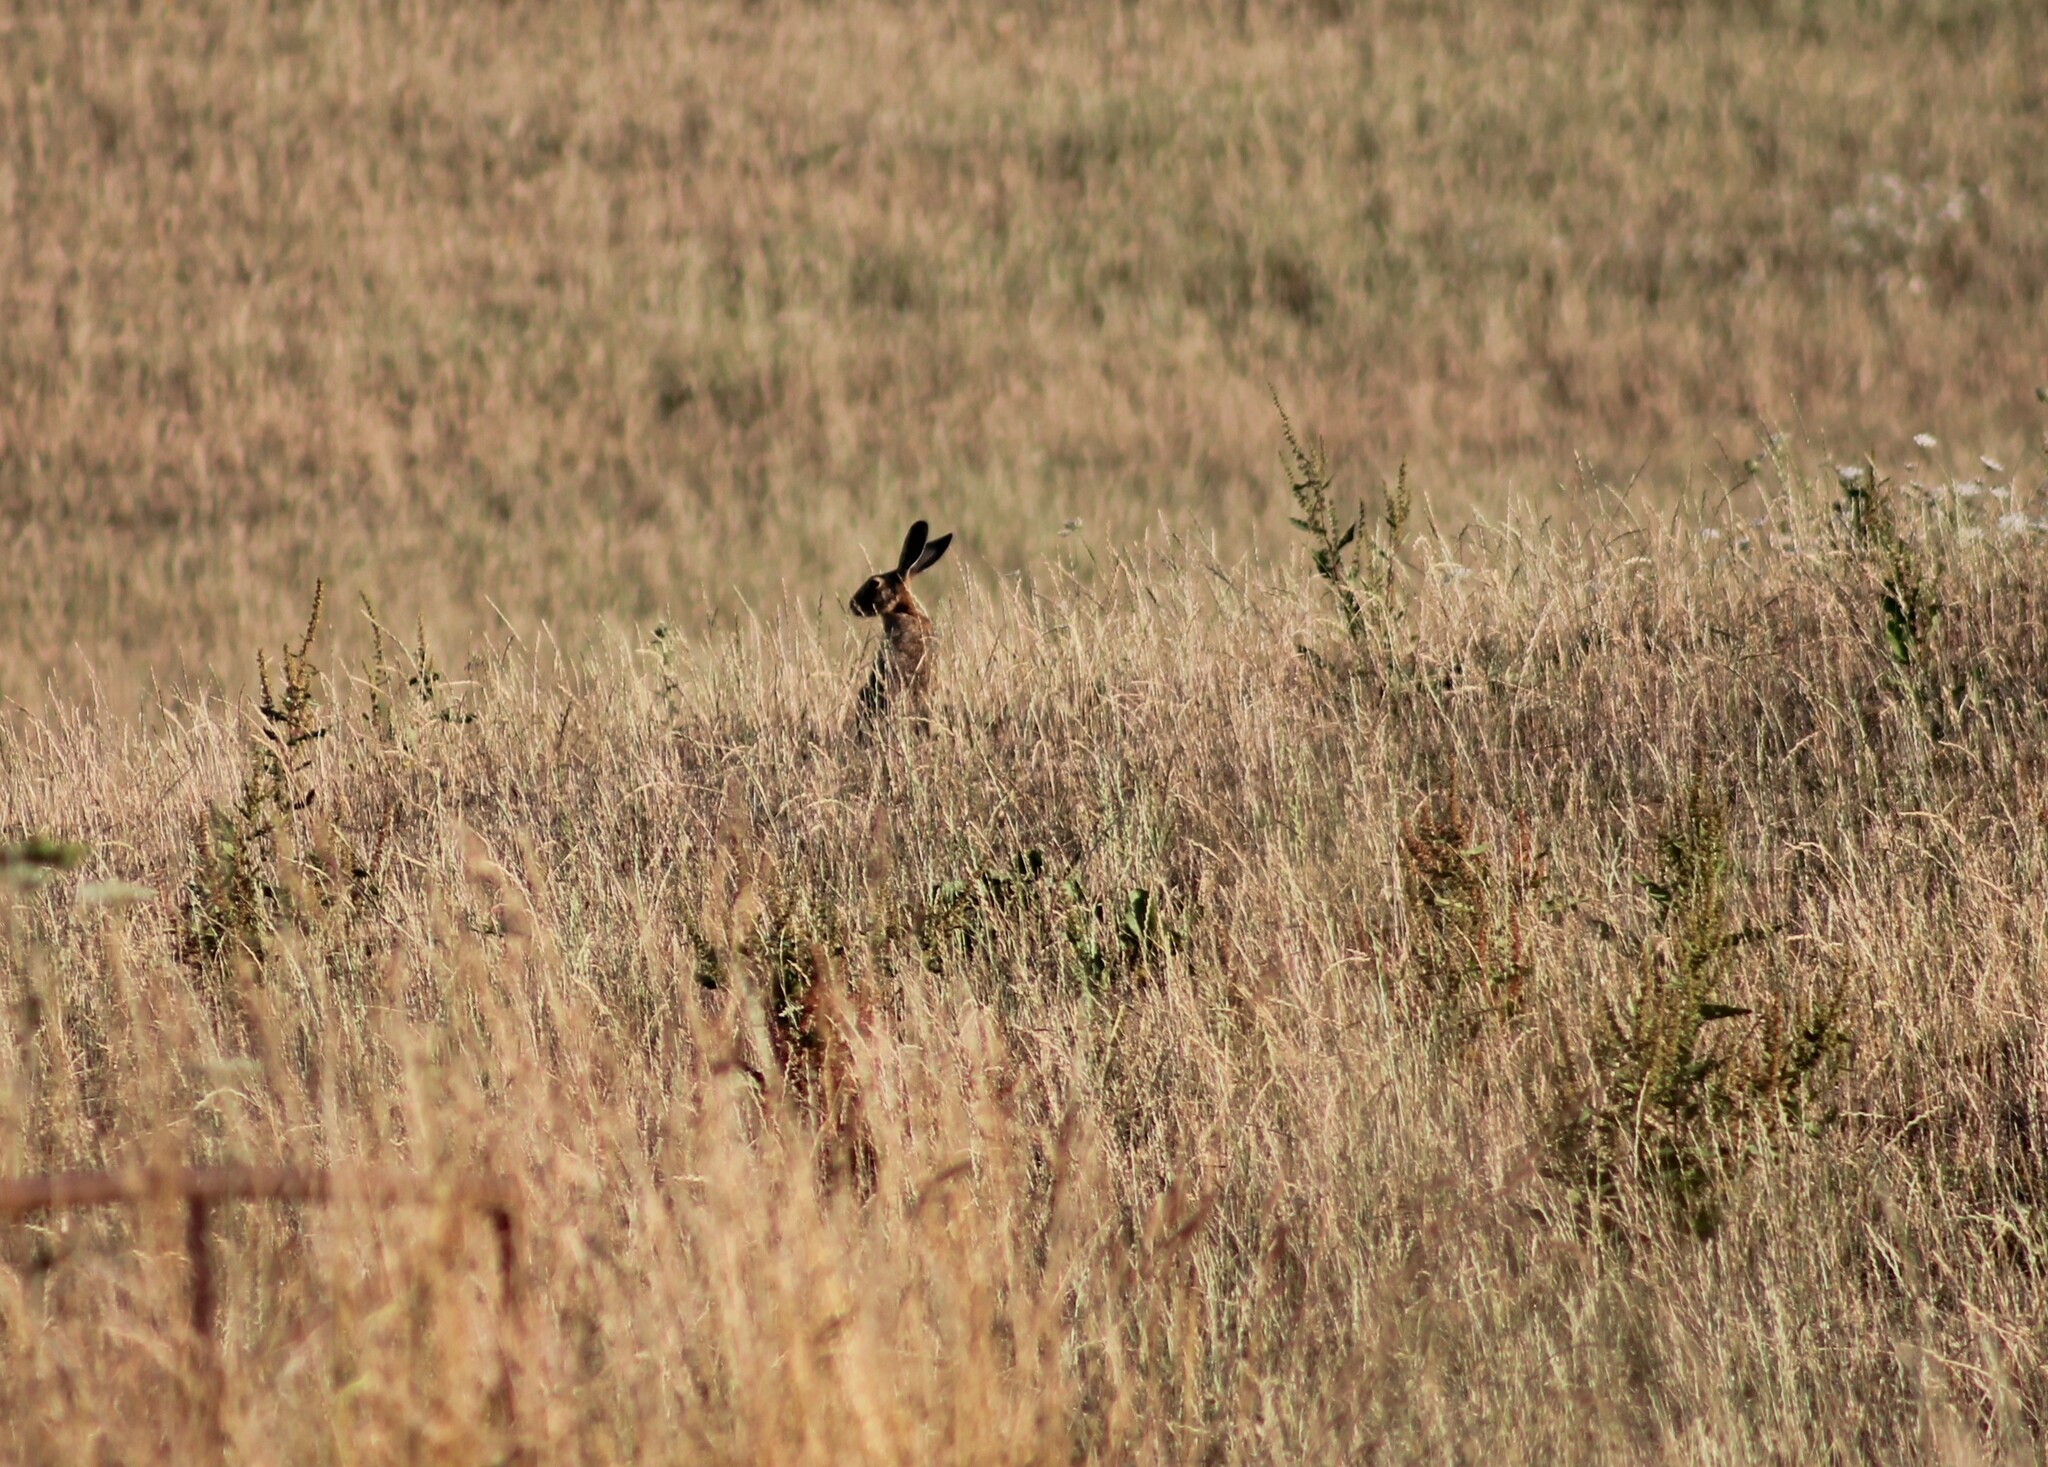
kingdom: Animalia
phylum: Chordata
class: Mammalia
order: Lagomorpha
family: Leporidae
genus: Lepus
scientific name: Lepus europaeus
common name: European hare
